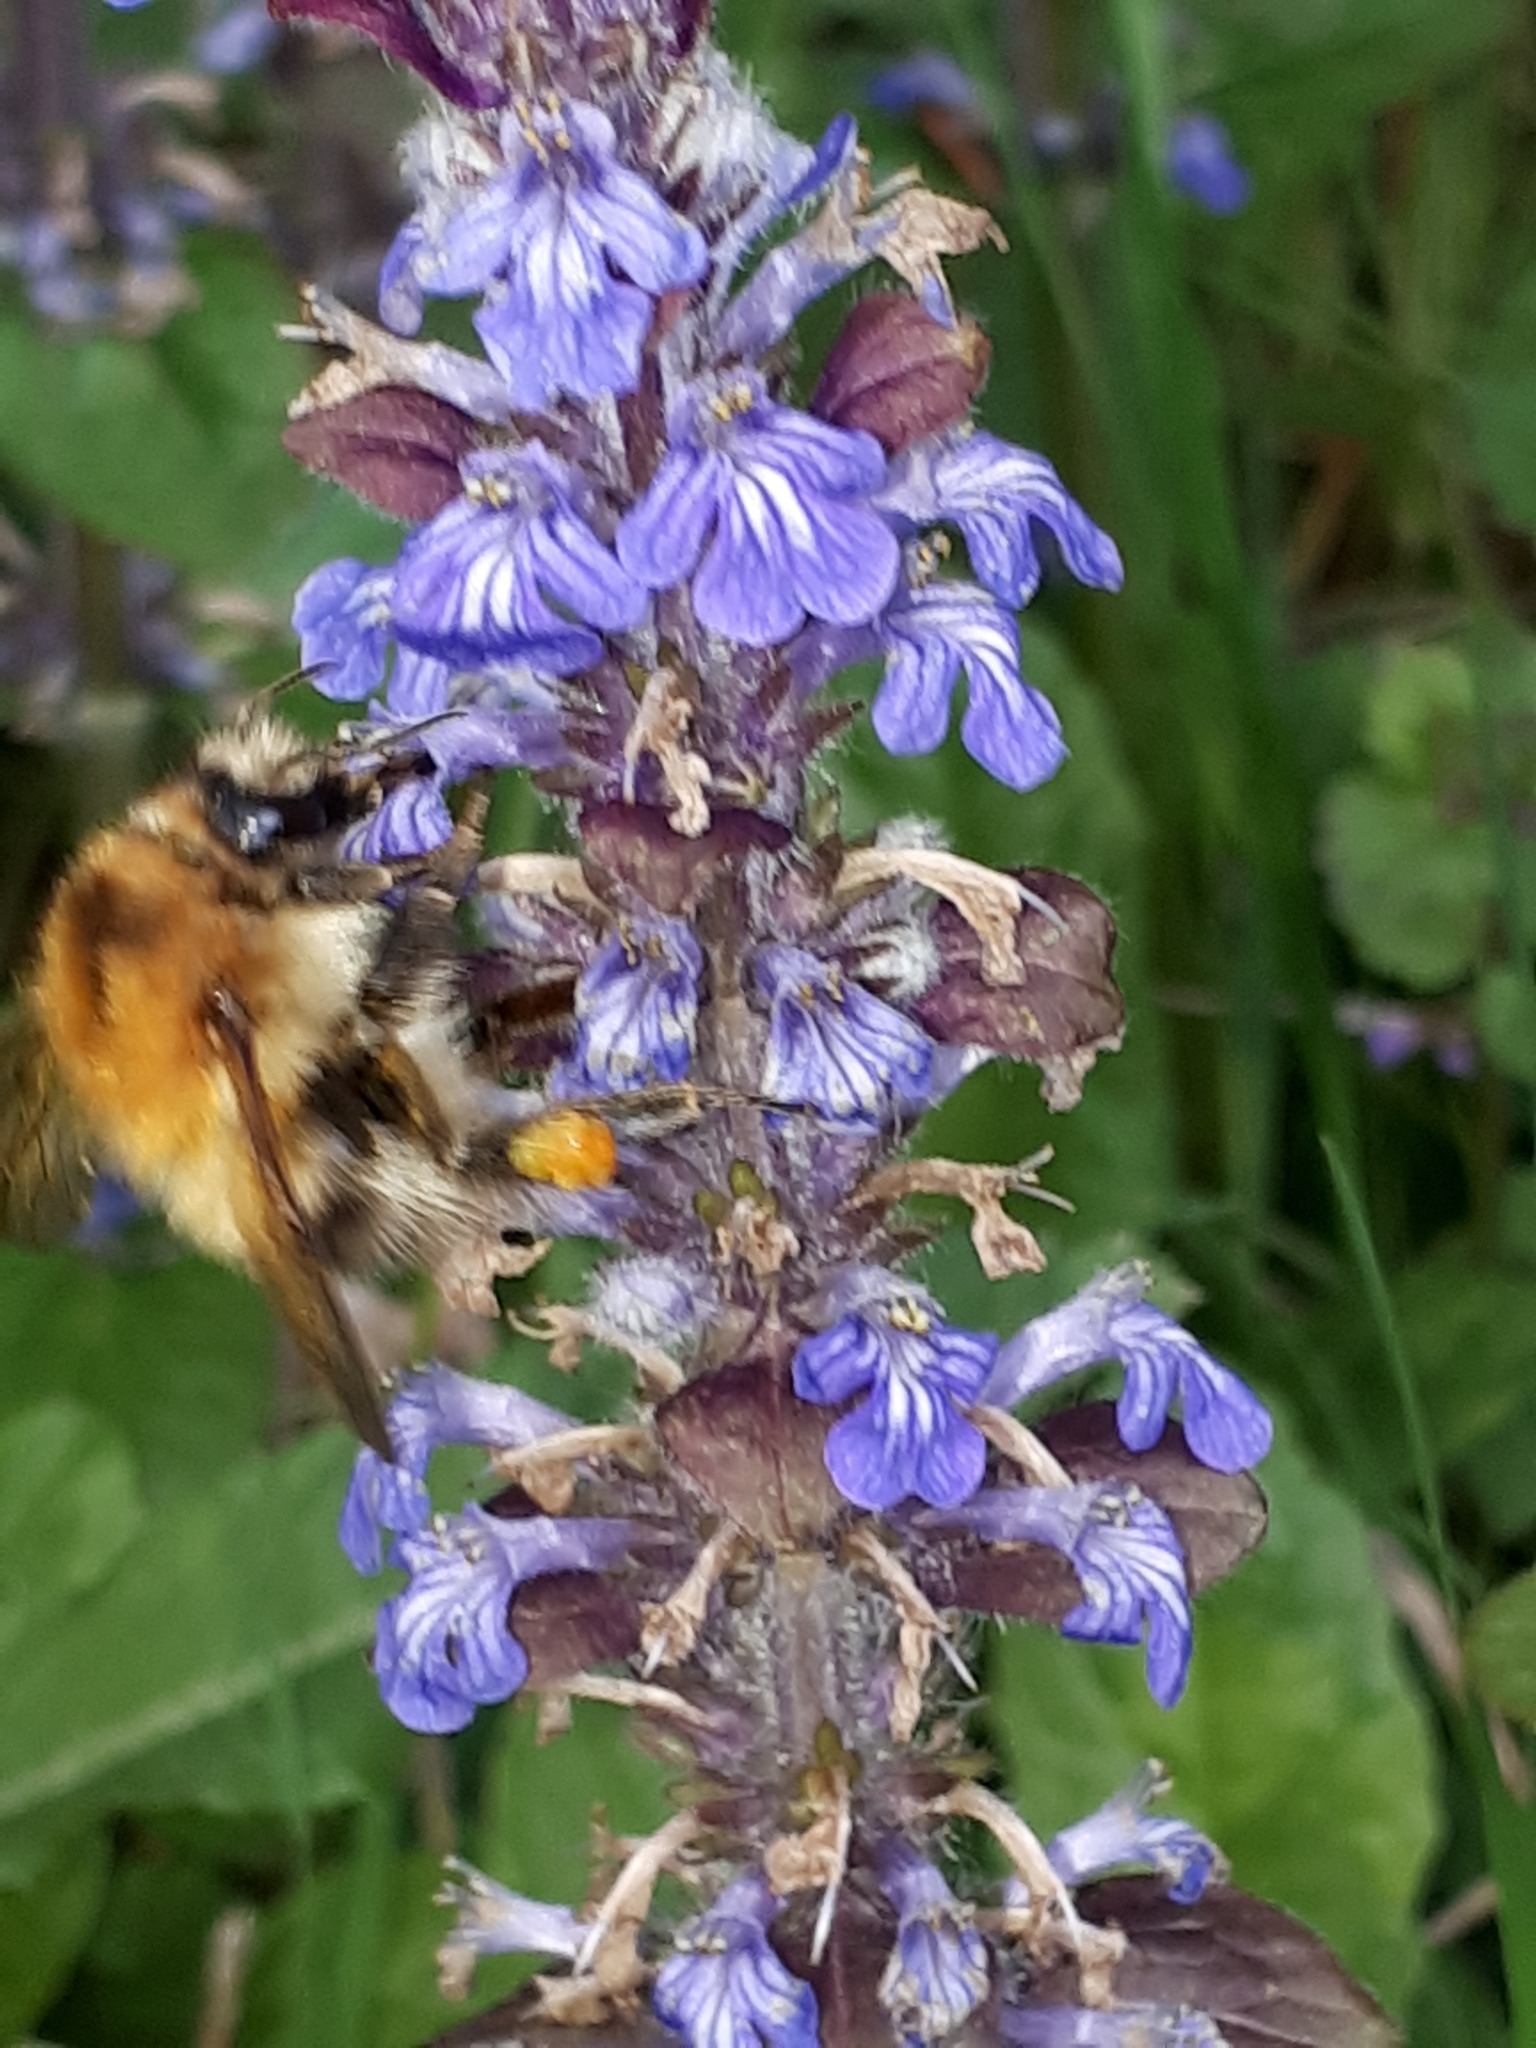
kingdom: Animalia
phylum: Arthropoda
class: Insecta
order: Hymenoptera
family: Apidae
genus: Bombus
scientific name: Bombus pascuorum
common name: Common carder bee
